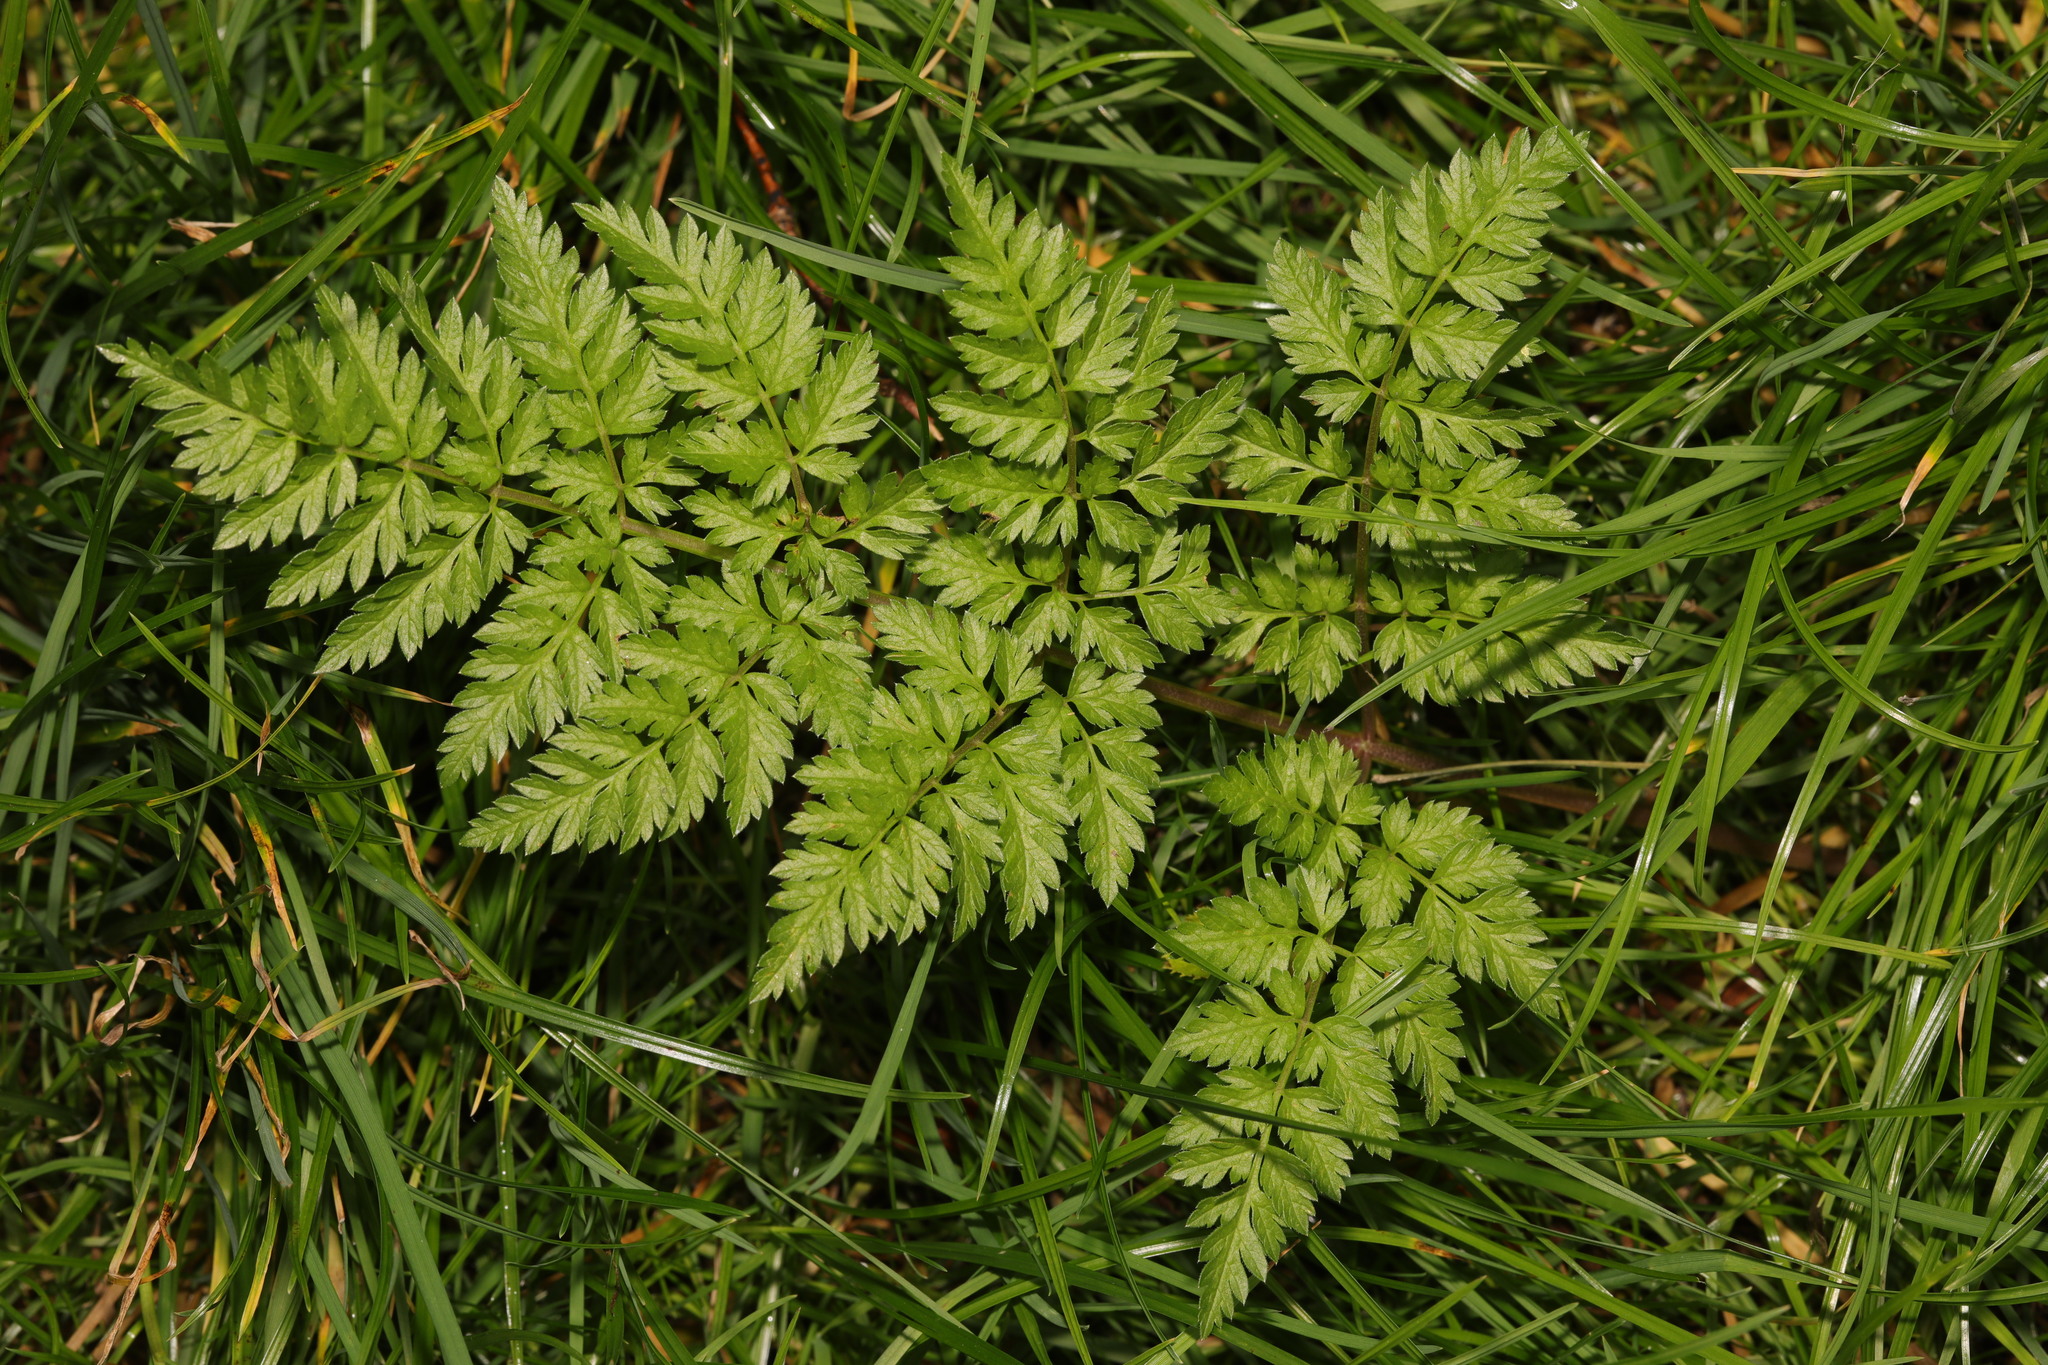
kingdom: Plantae
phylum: Tracheophyta
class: Magnoliopsida
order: Apiales
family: Apiaceae
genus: Anthriscus
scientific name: Anthriscus sylvestris
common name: Cow parsley
